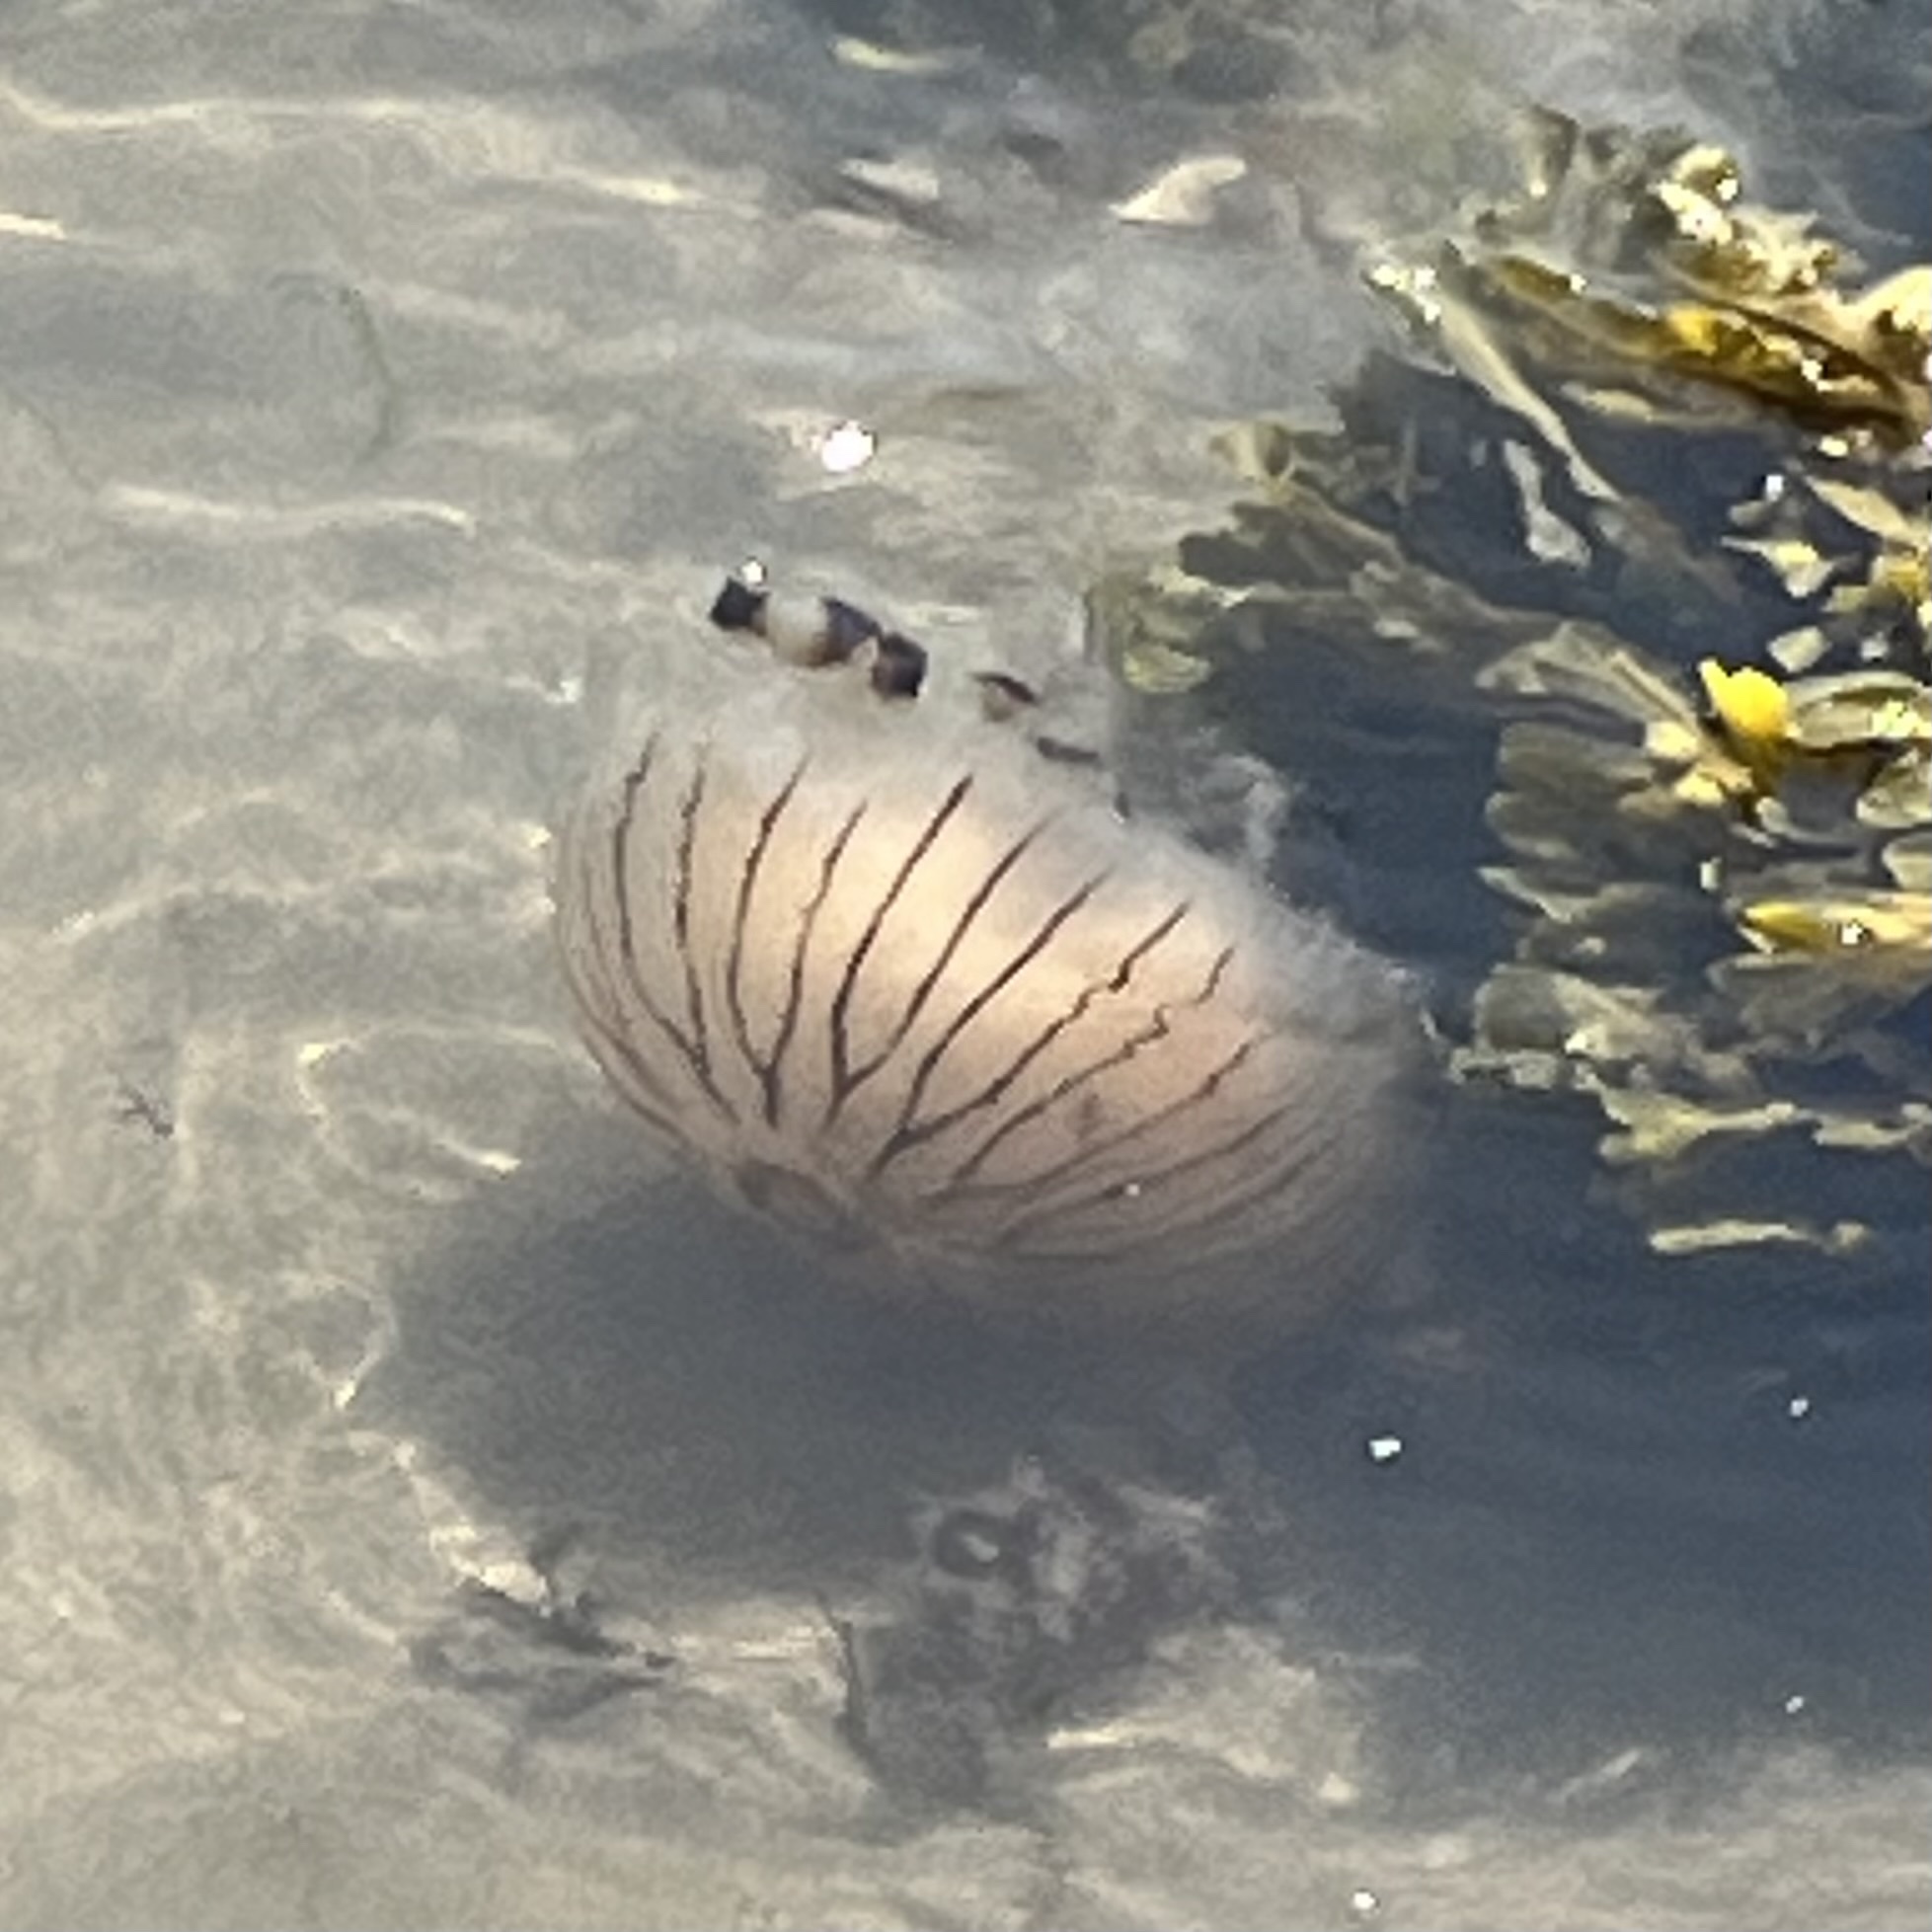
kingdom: Animalia
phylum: Cnidaria
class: Scyphozoa
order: Semaeostomeae
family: Pelagiidae
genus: Chrysaora
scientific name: Chrysaora hysoscella
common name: Compass jellyfish
